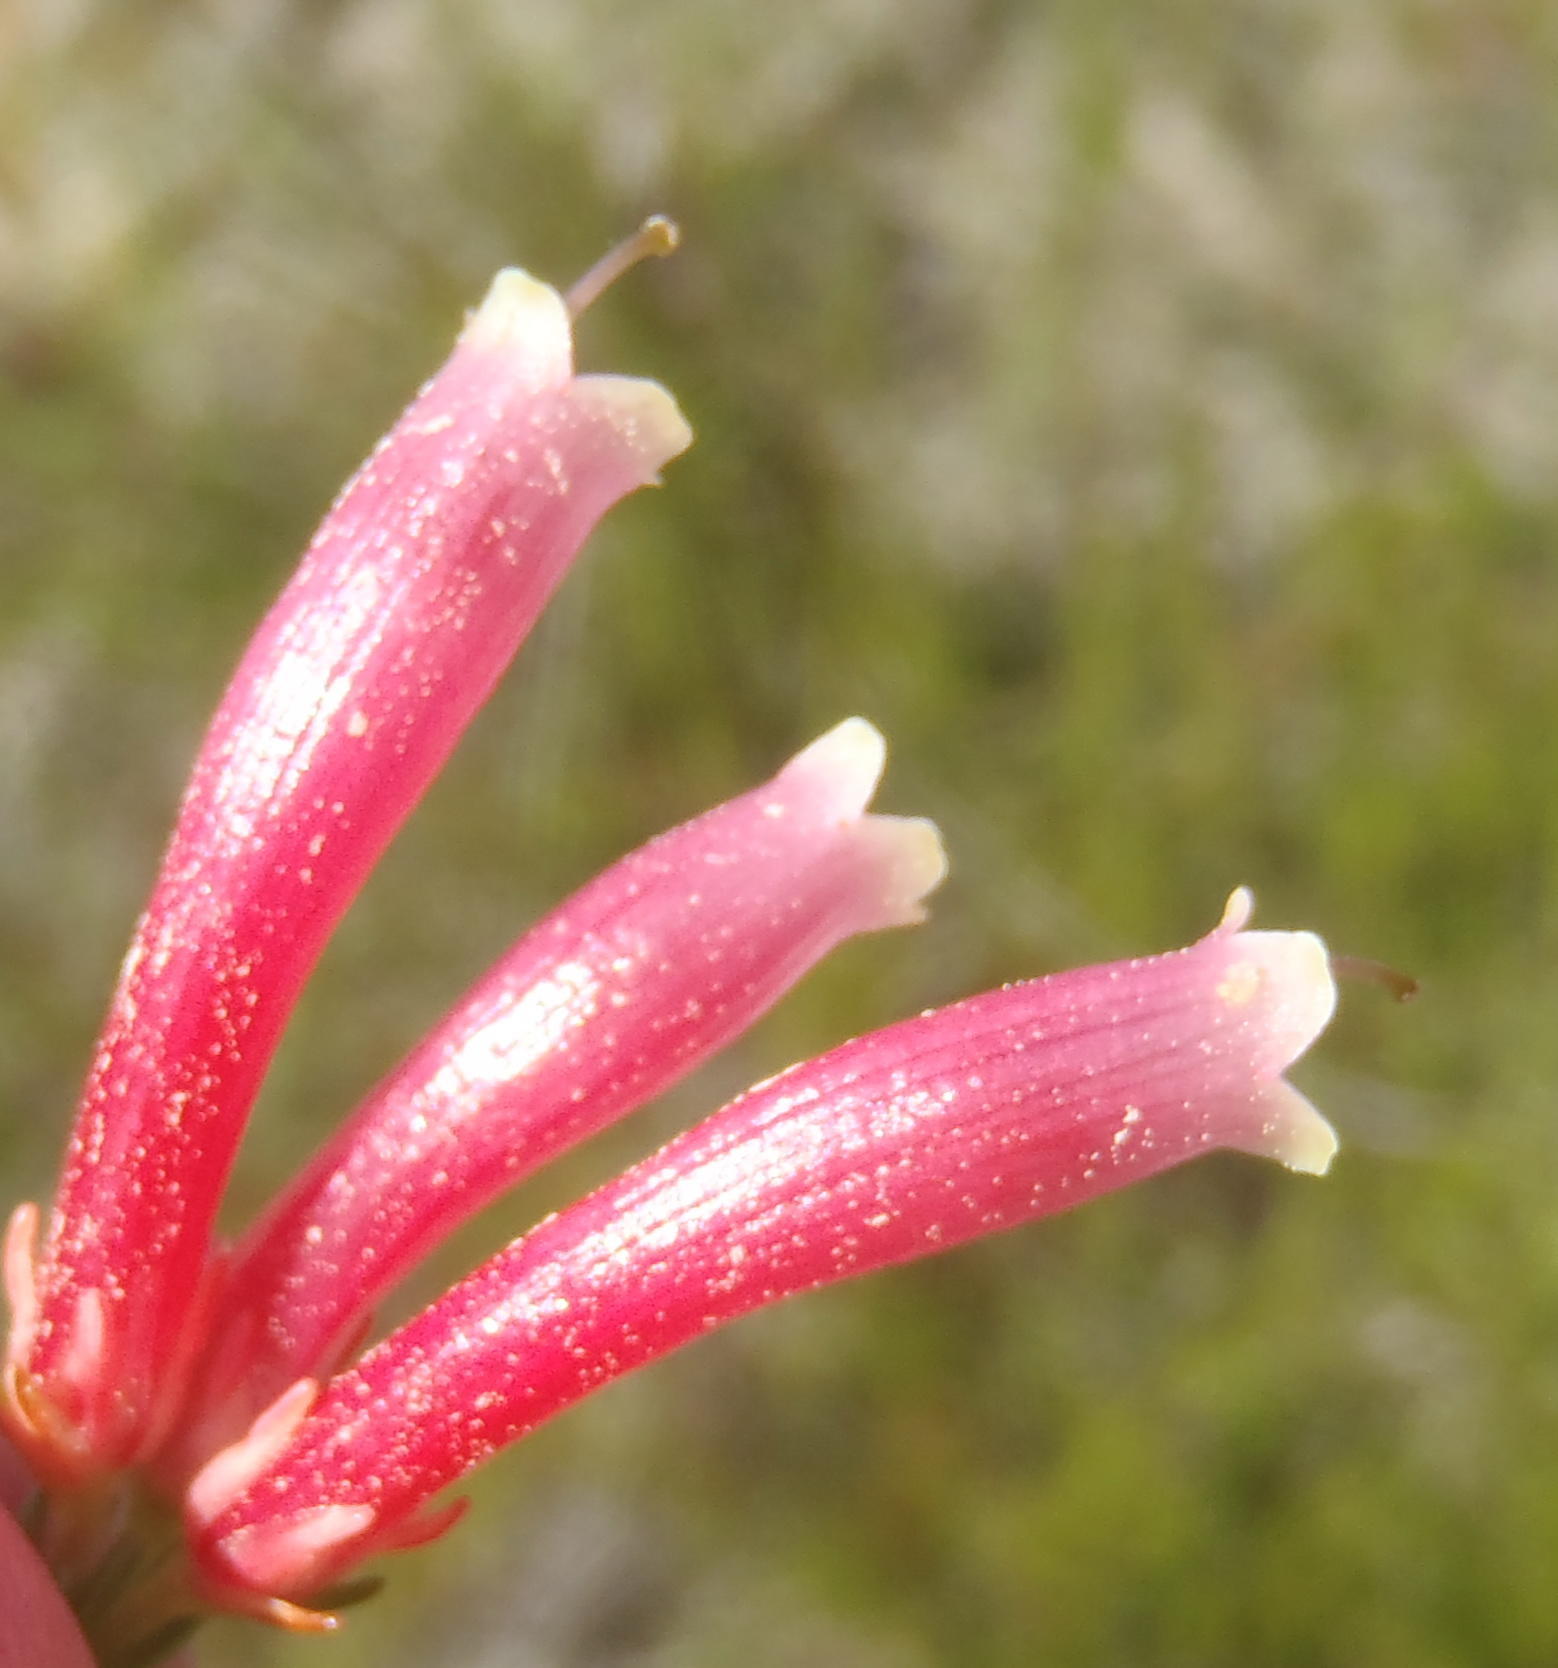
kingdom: Plantae
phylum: Tracheophyta
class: Magnoliopsida
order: Ericales
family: Ericaceae
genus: Erica
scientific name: Erica discolor
